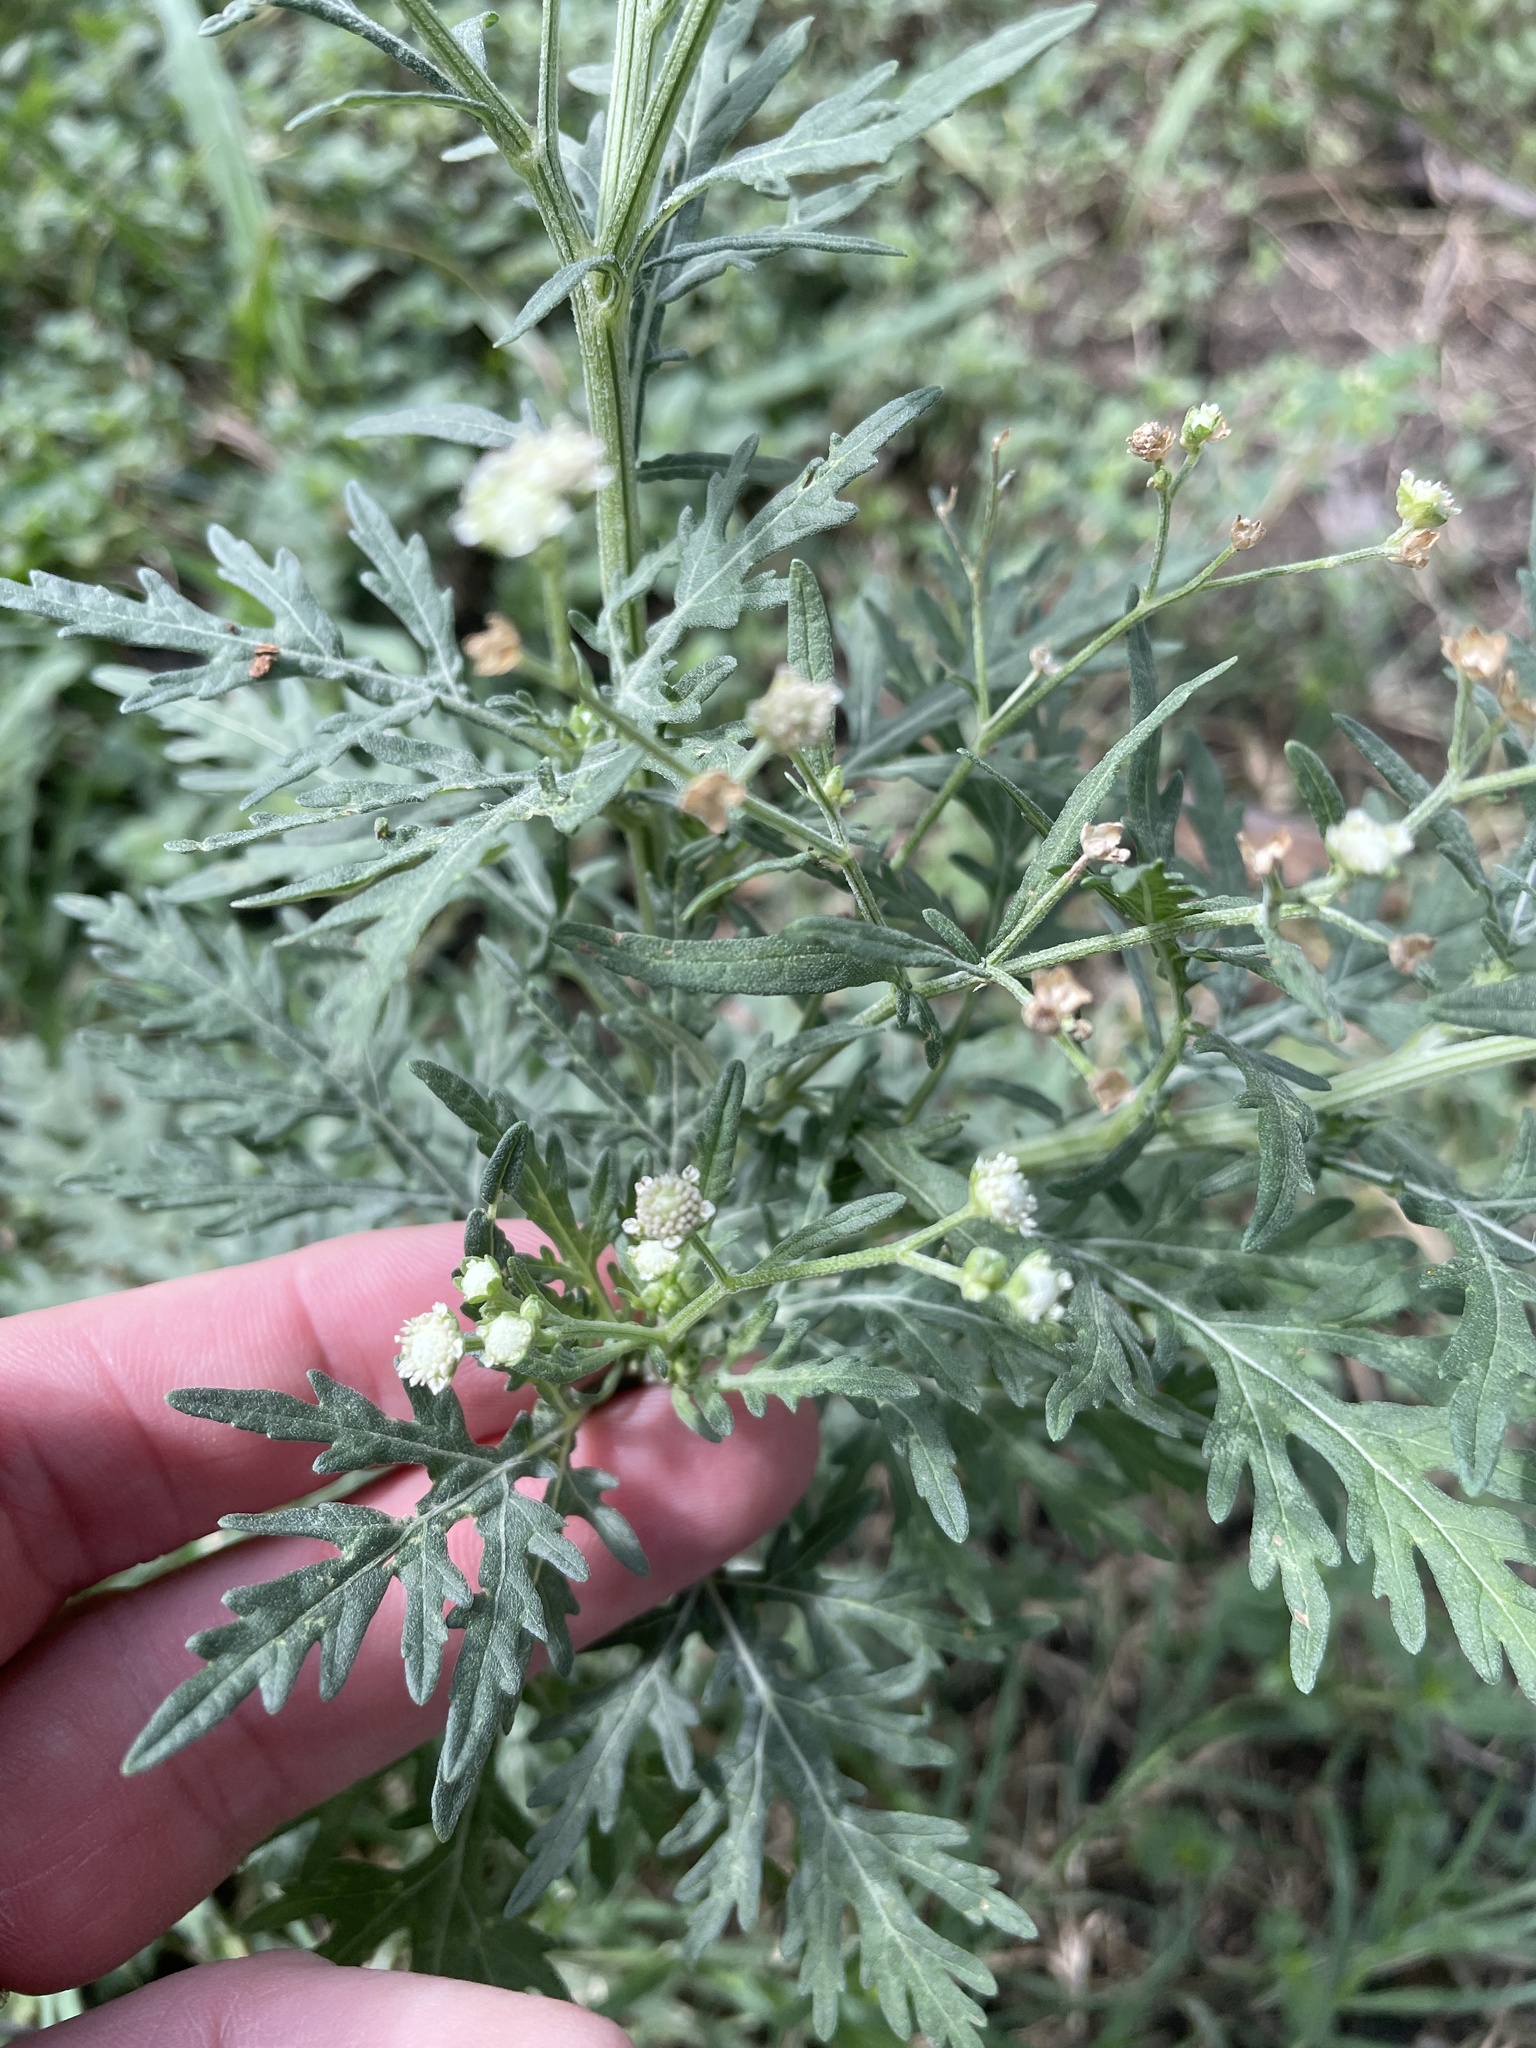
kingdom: Plantae
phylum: Tracheophyta
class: Magnoliopsida
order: Asterales
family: Asteraceae
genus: Parthenium
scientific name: Parthenium hysterophorus
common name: Santa maria feverfew
